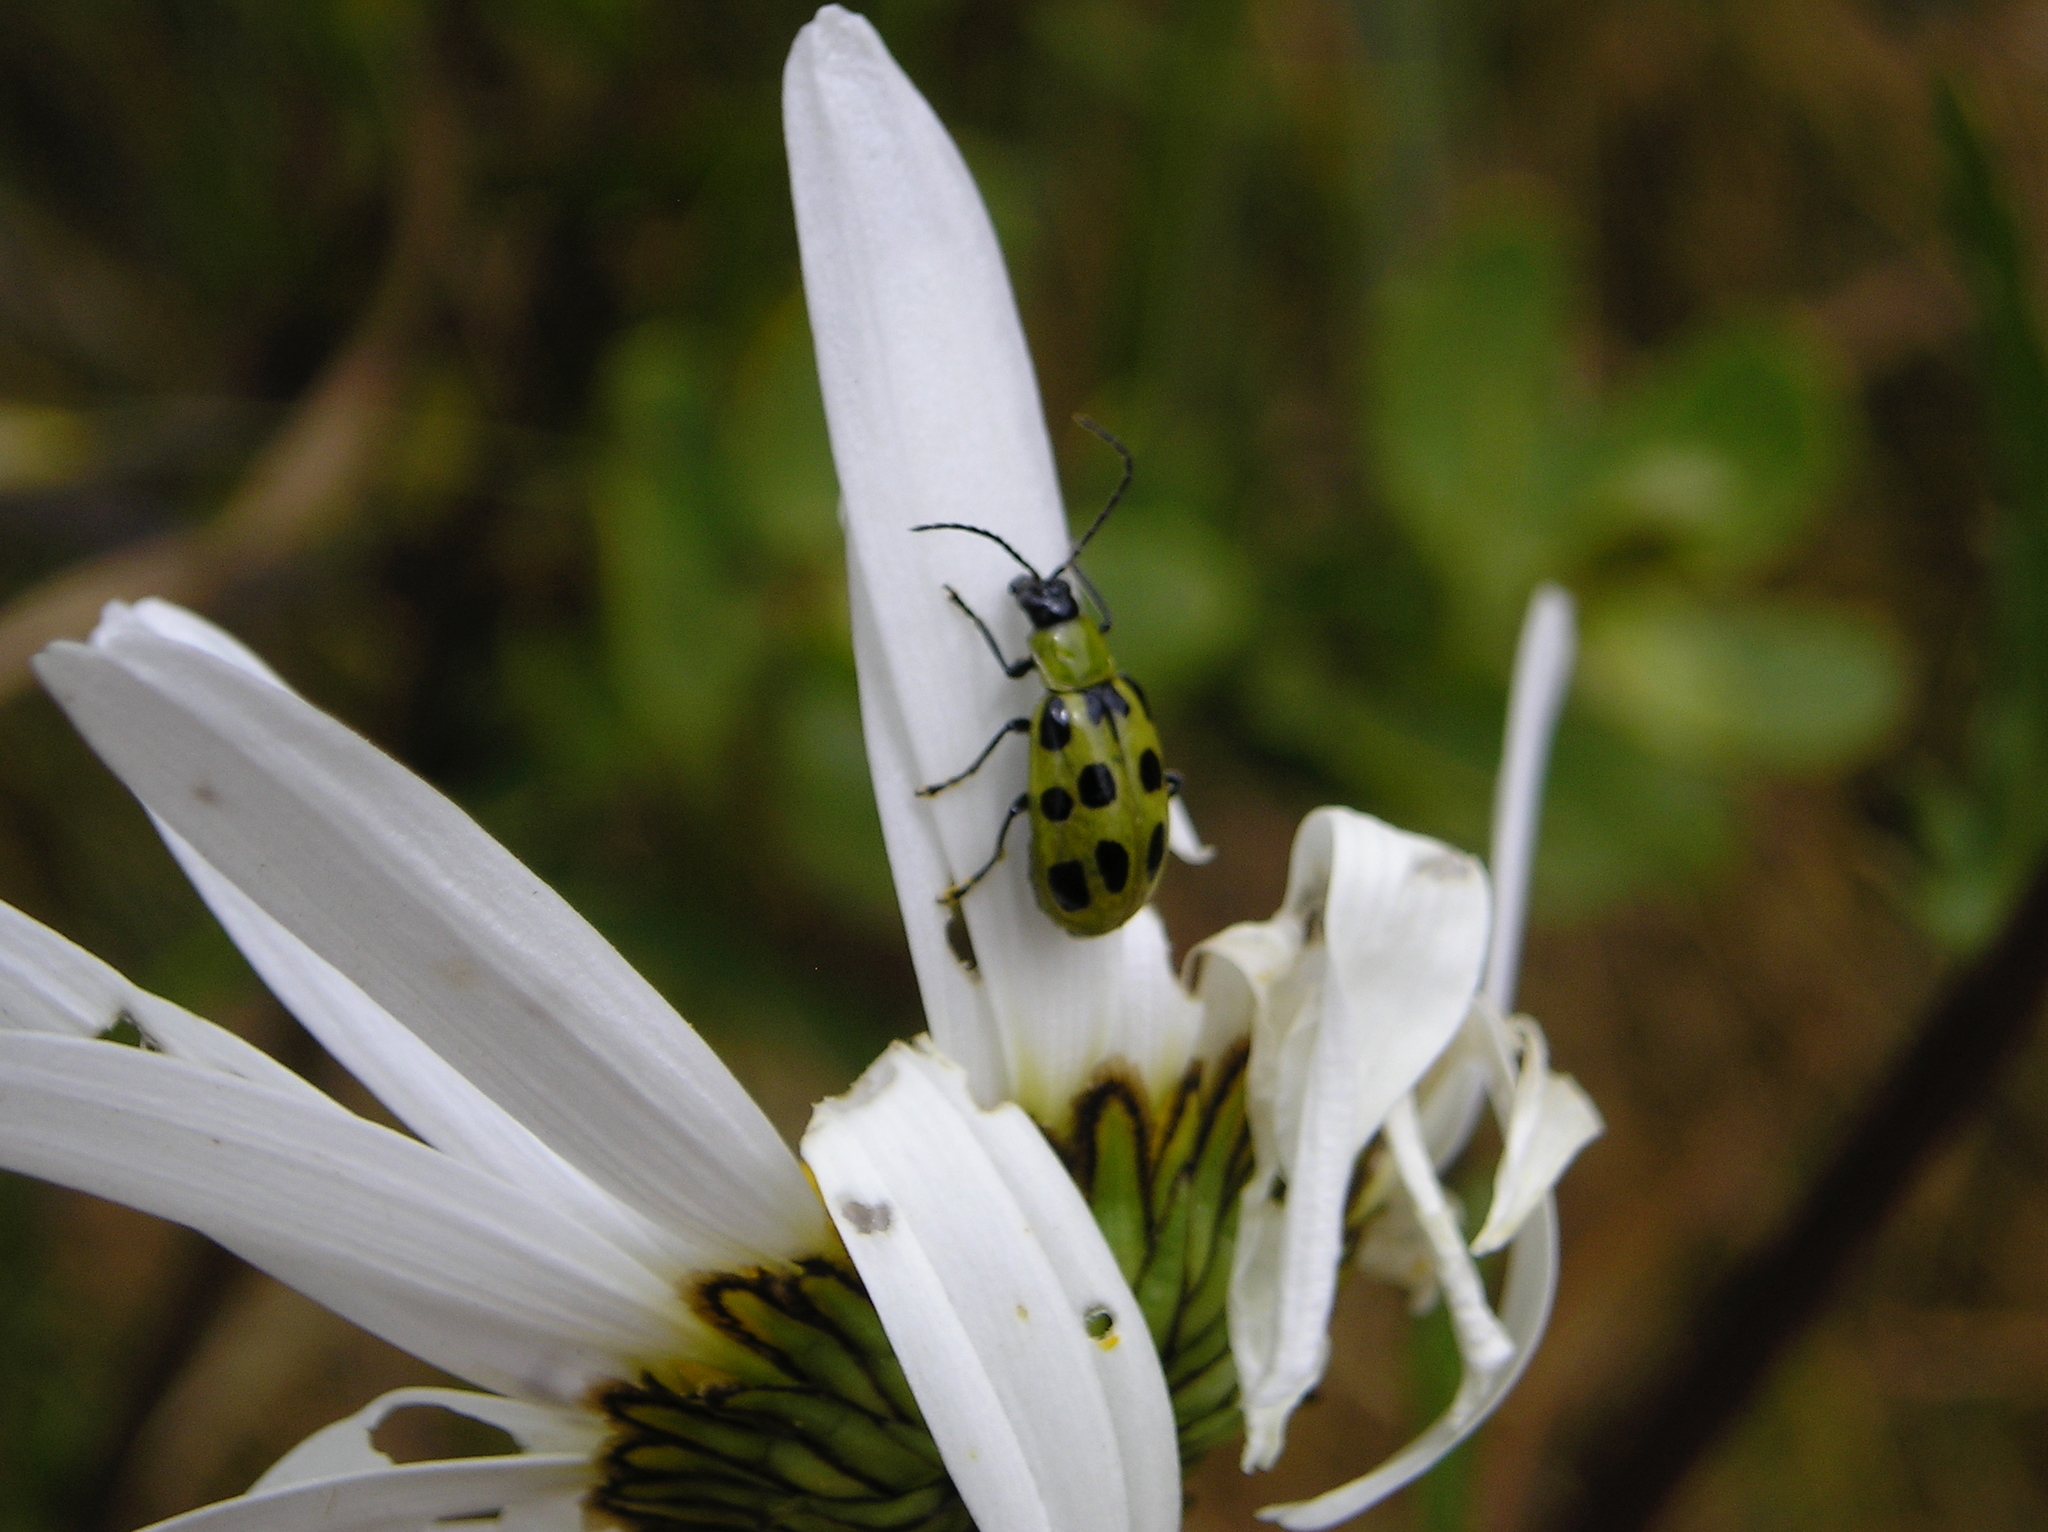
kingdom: Animalia
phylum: Arthropoda
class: Insecta
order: Coleoptera
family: Chrysomelidae
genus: Diabrotica
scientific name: Diabrotica undecimpunctata
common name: Spotted cucumber beetle
